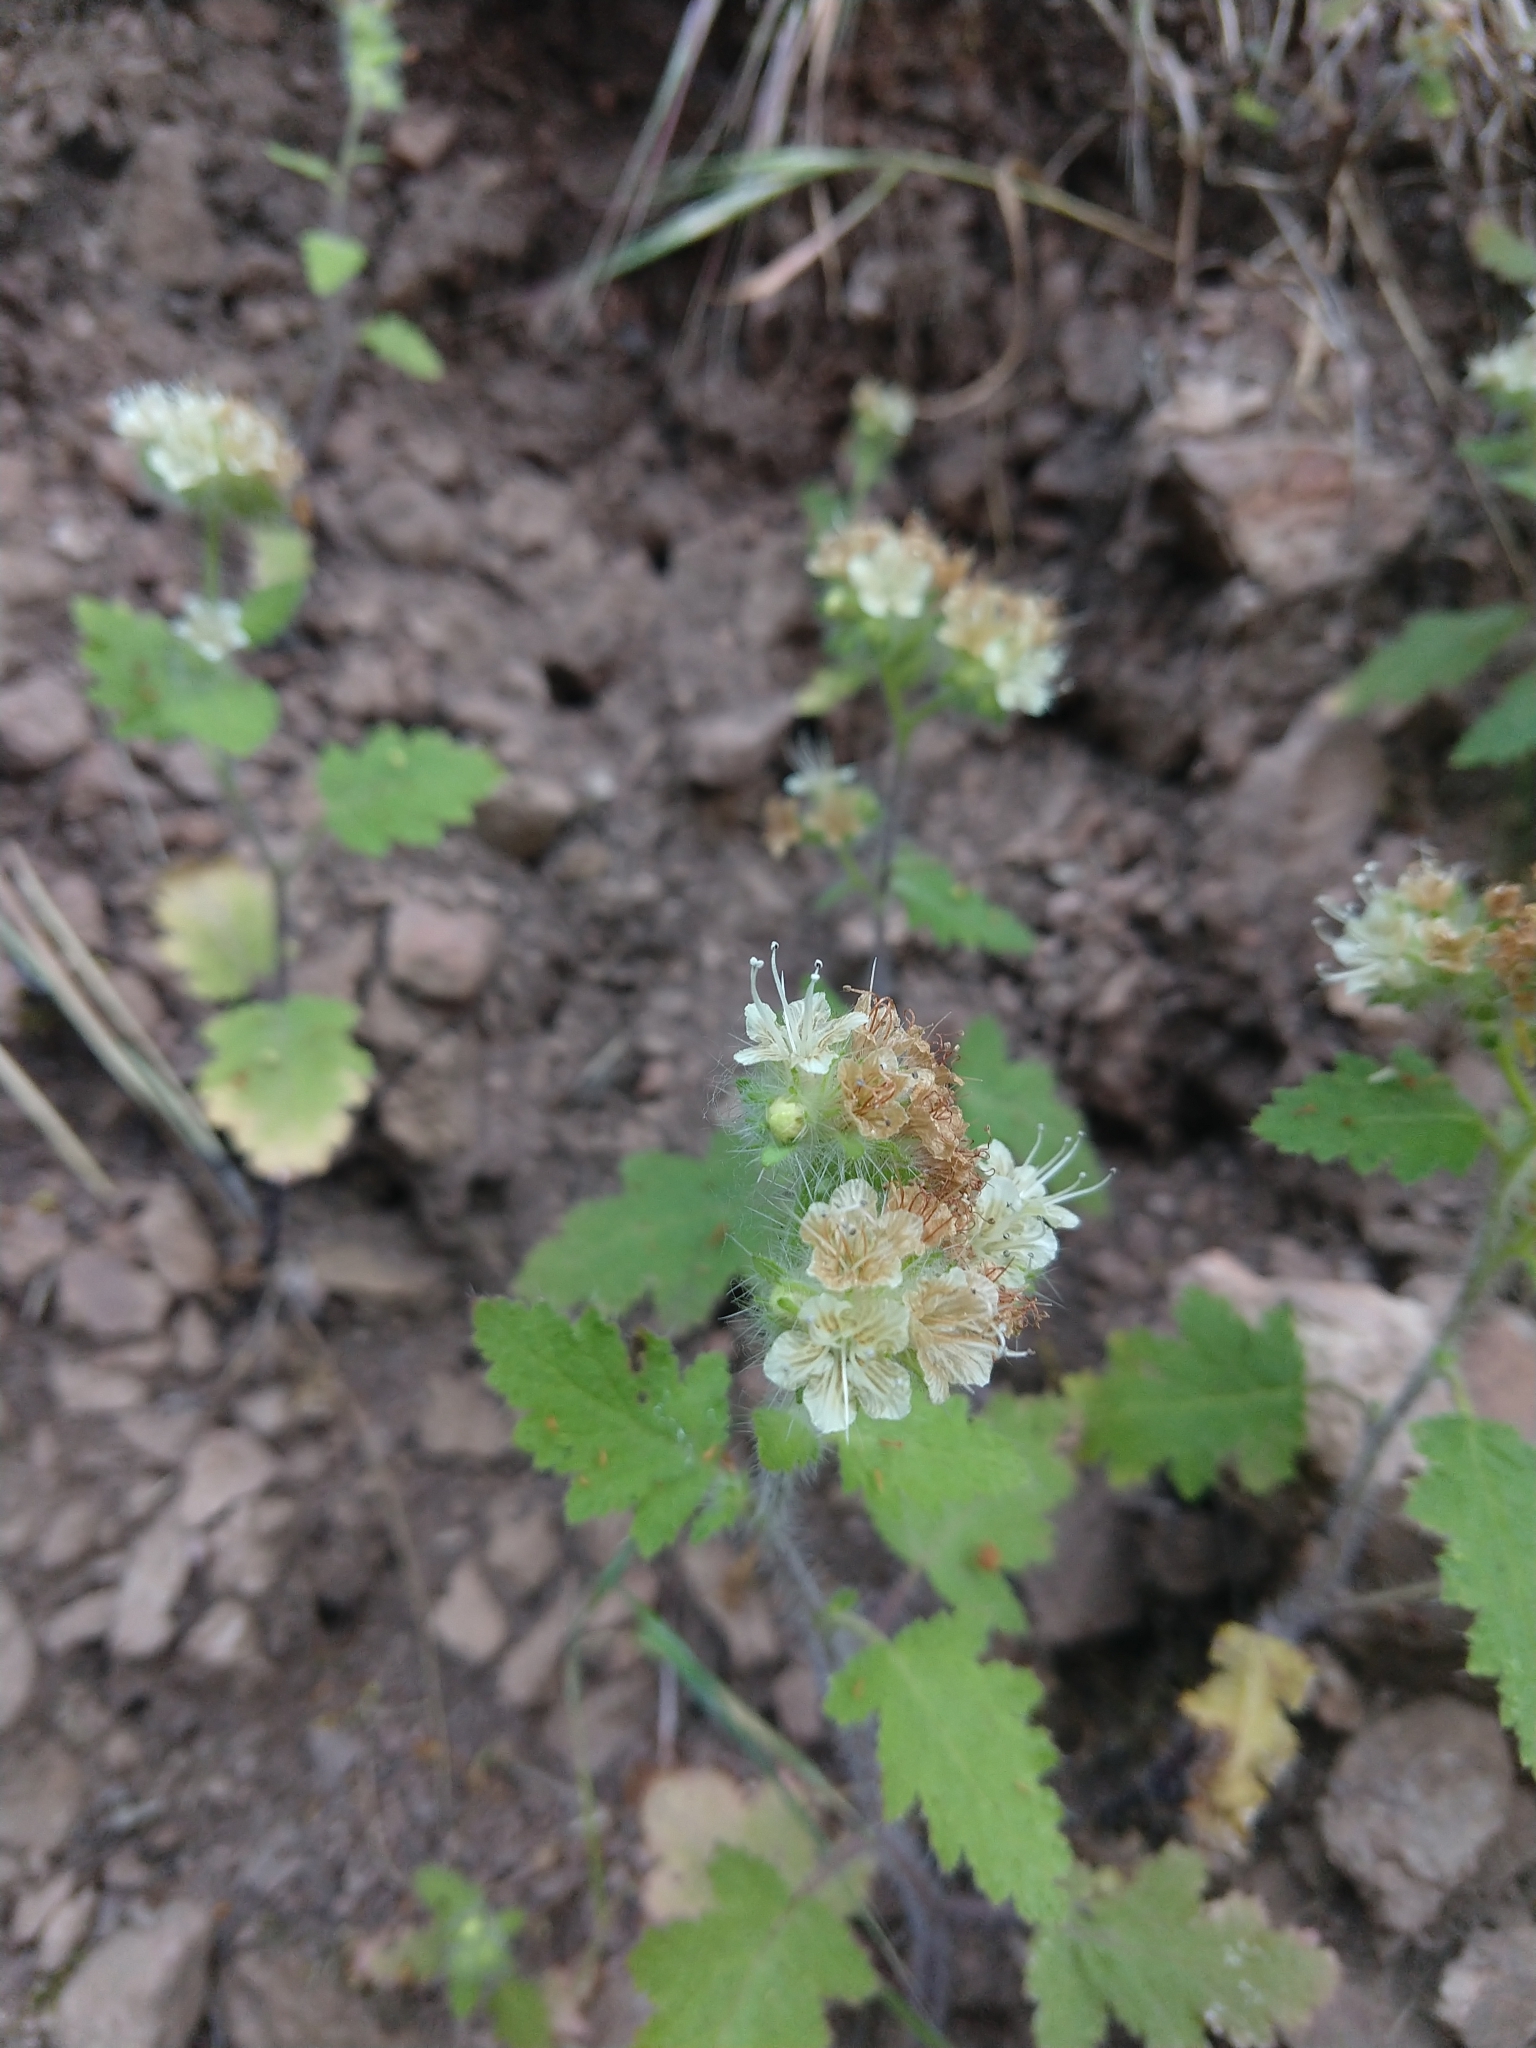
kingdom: Plantae
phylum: Tracheophyta
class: Magnoliopsida
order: Boraginales
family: Hydrophyllaceae
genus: Phacelia
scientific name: Phacelia malvifolia
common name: Mallow-leaf phacelia
